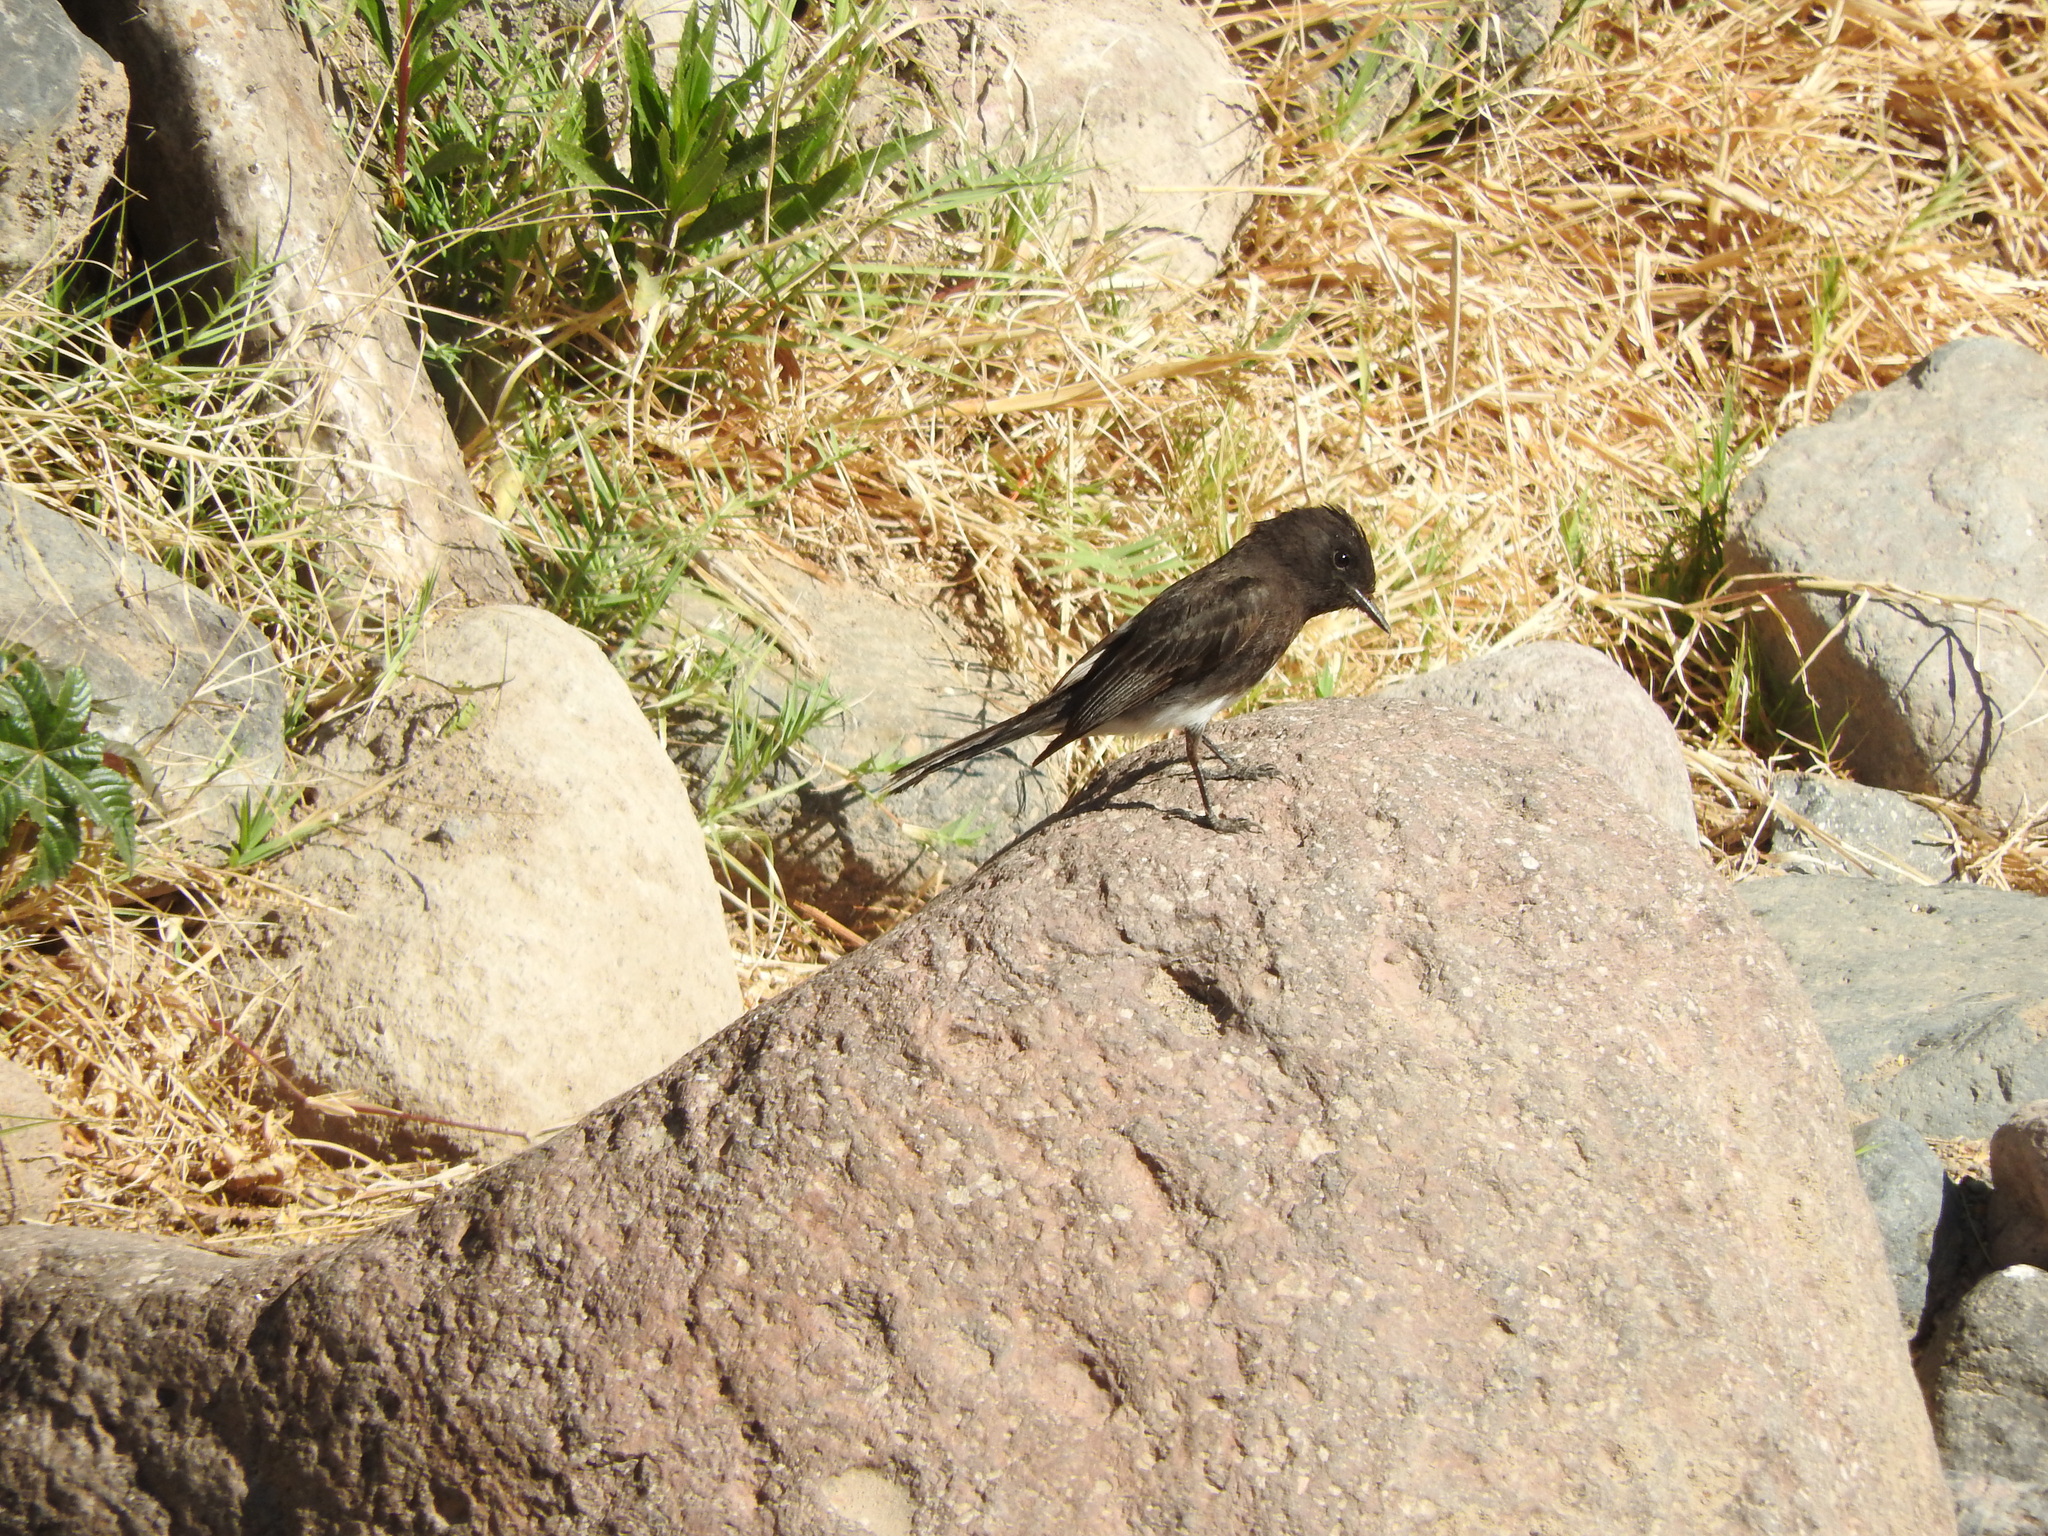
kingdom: Animalia
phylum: Chordata
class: Aves
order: Passeriformes
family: Tyrannidae
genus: Sayornis
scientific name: Sayornis nigricans
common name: Black phoebe
